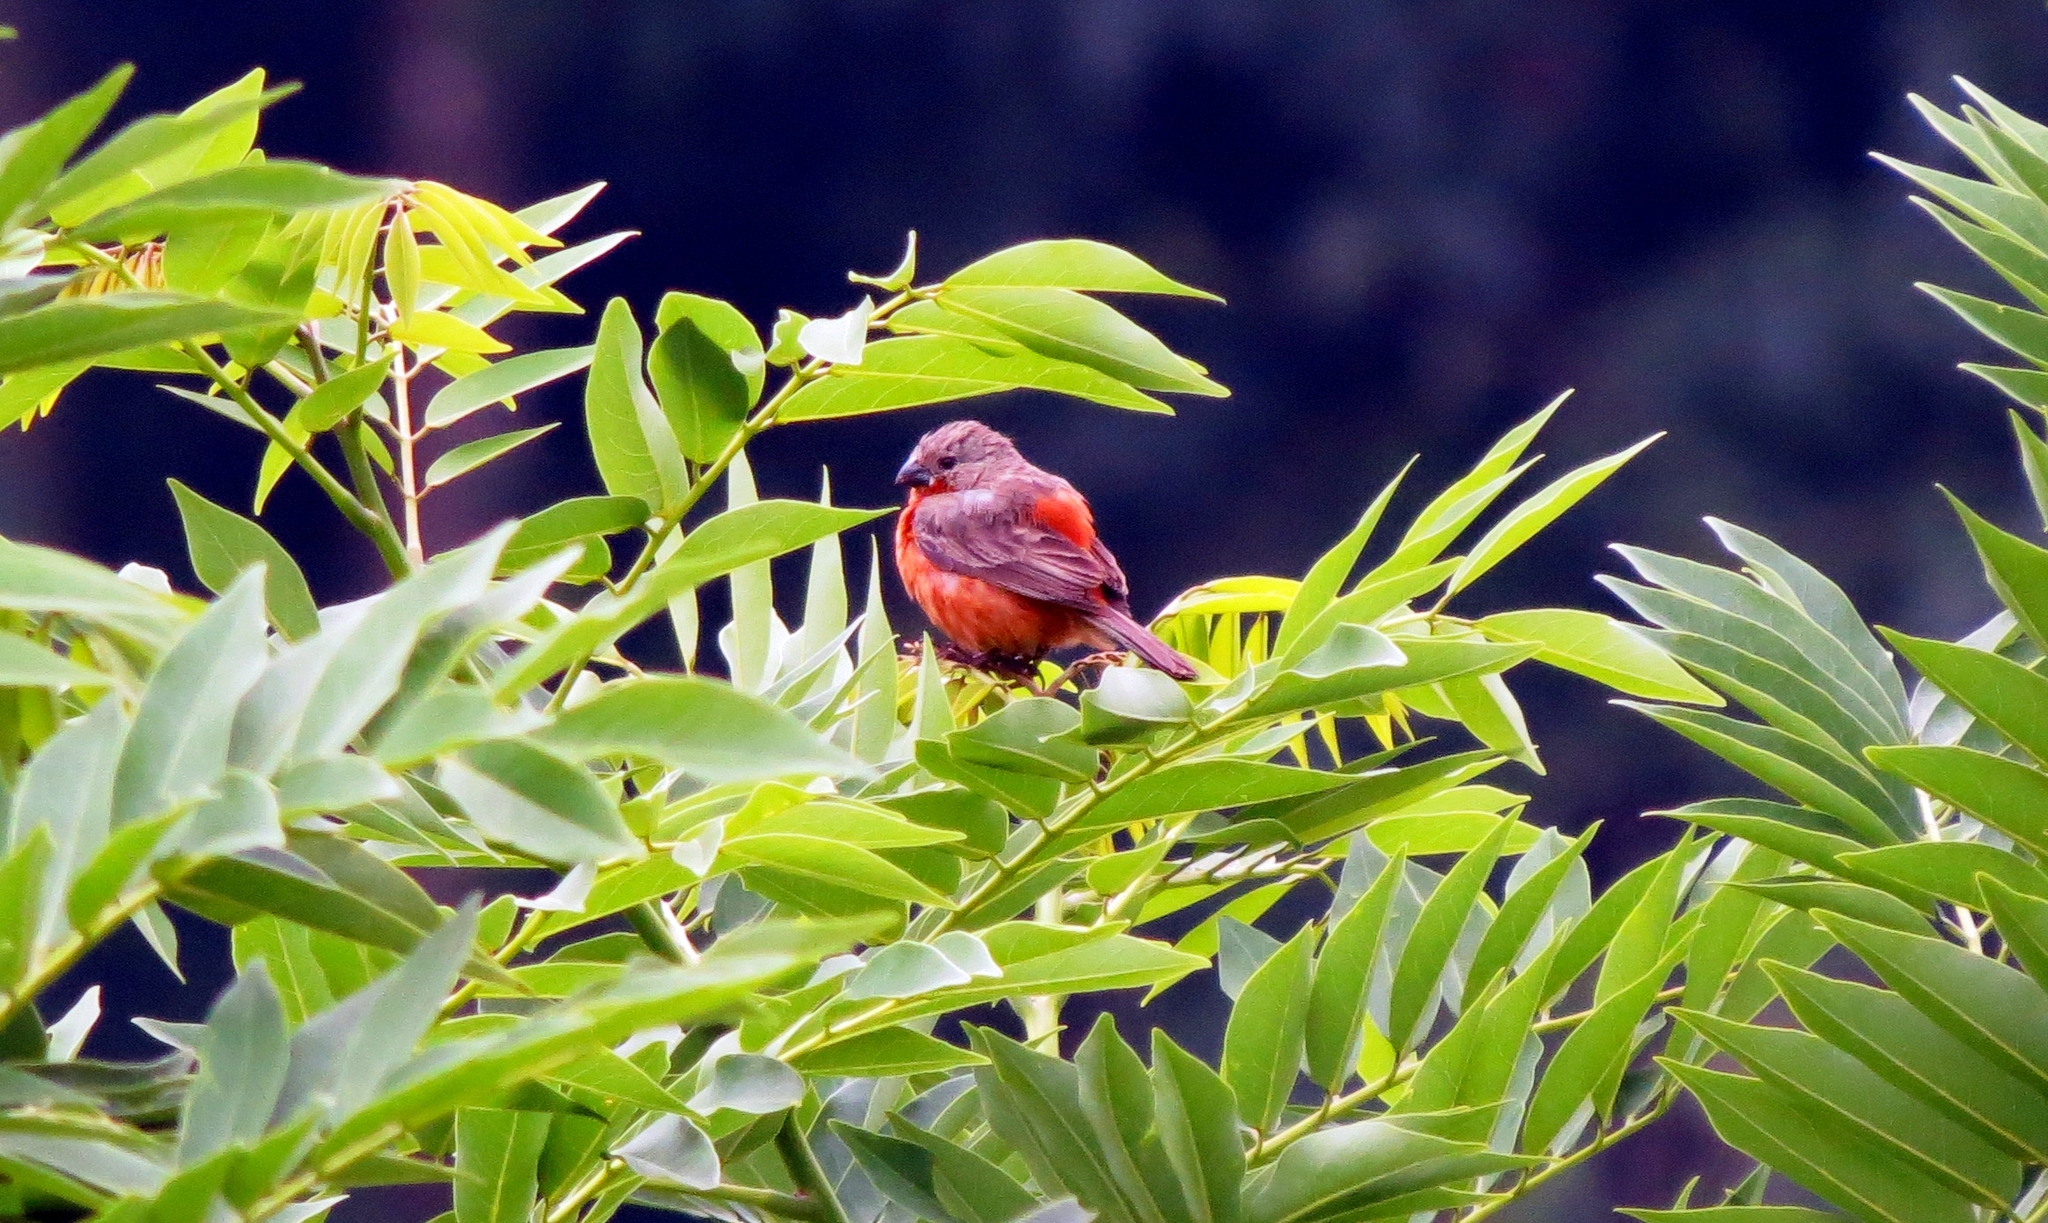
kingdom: Animalia
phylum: Chordata
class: Aves
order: Passeriformes
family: Thraupidae
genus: Sporophila
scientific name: Sporophila minuta
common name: Ruddy-breasted seedeater
